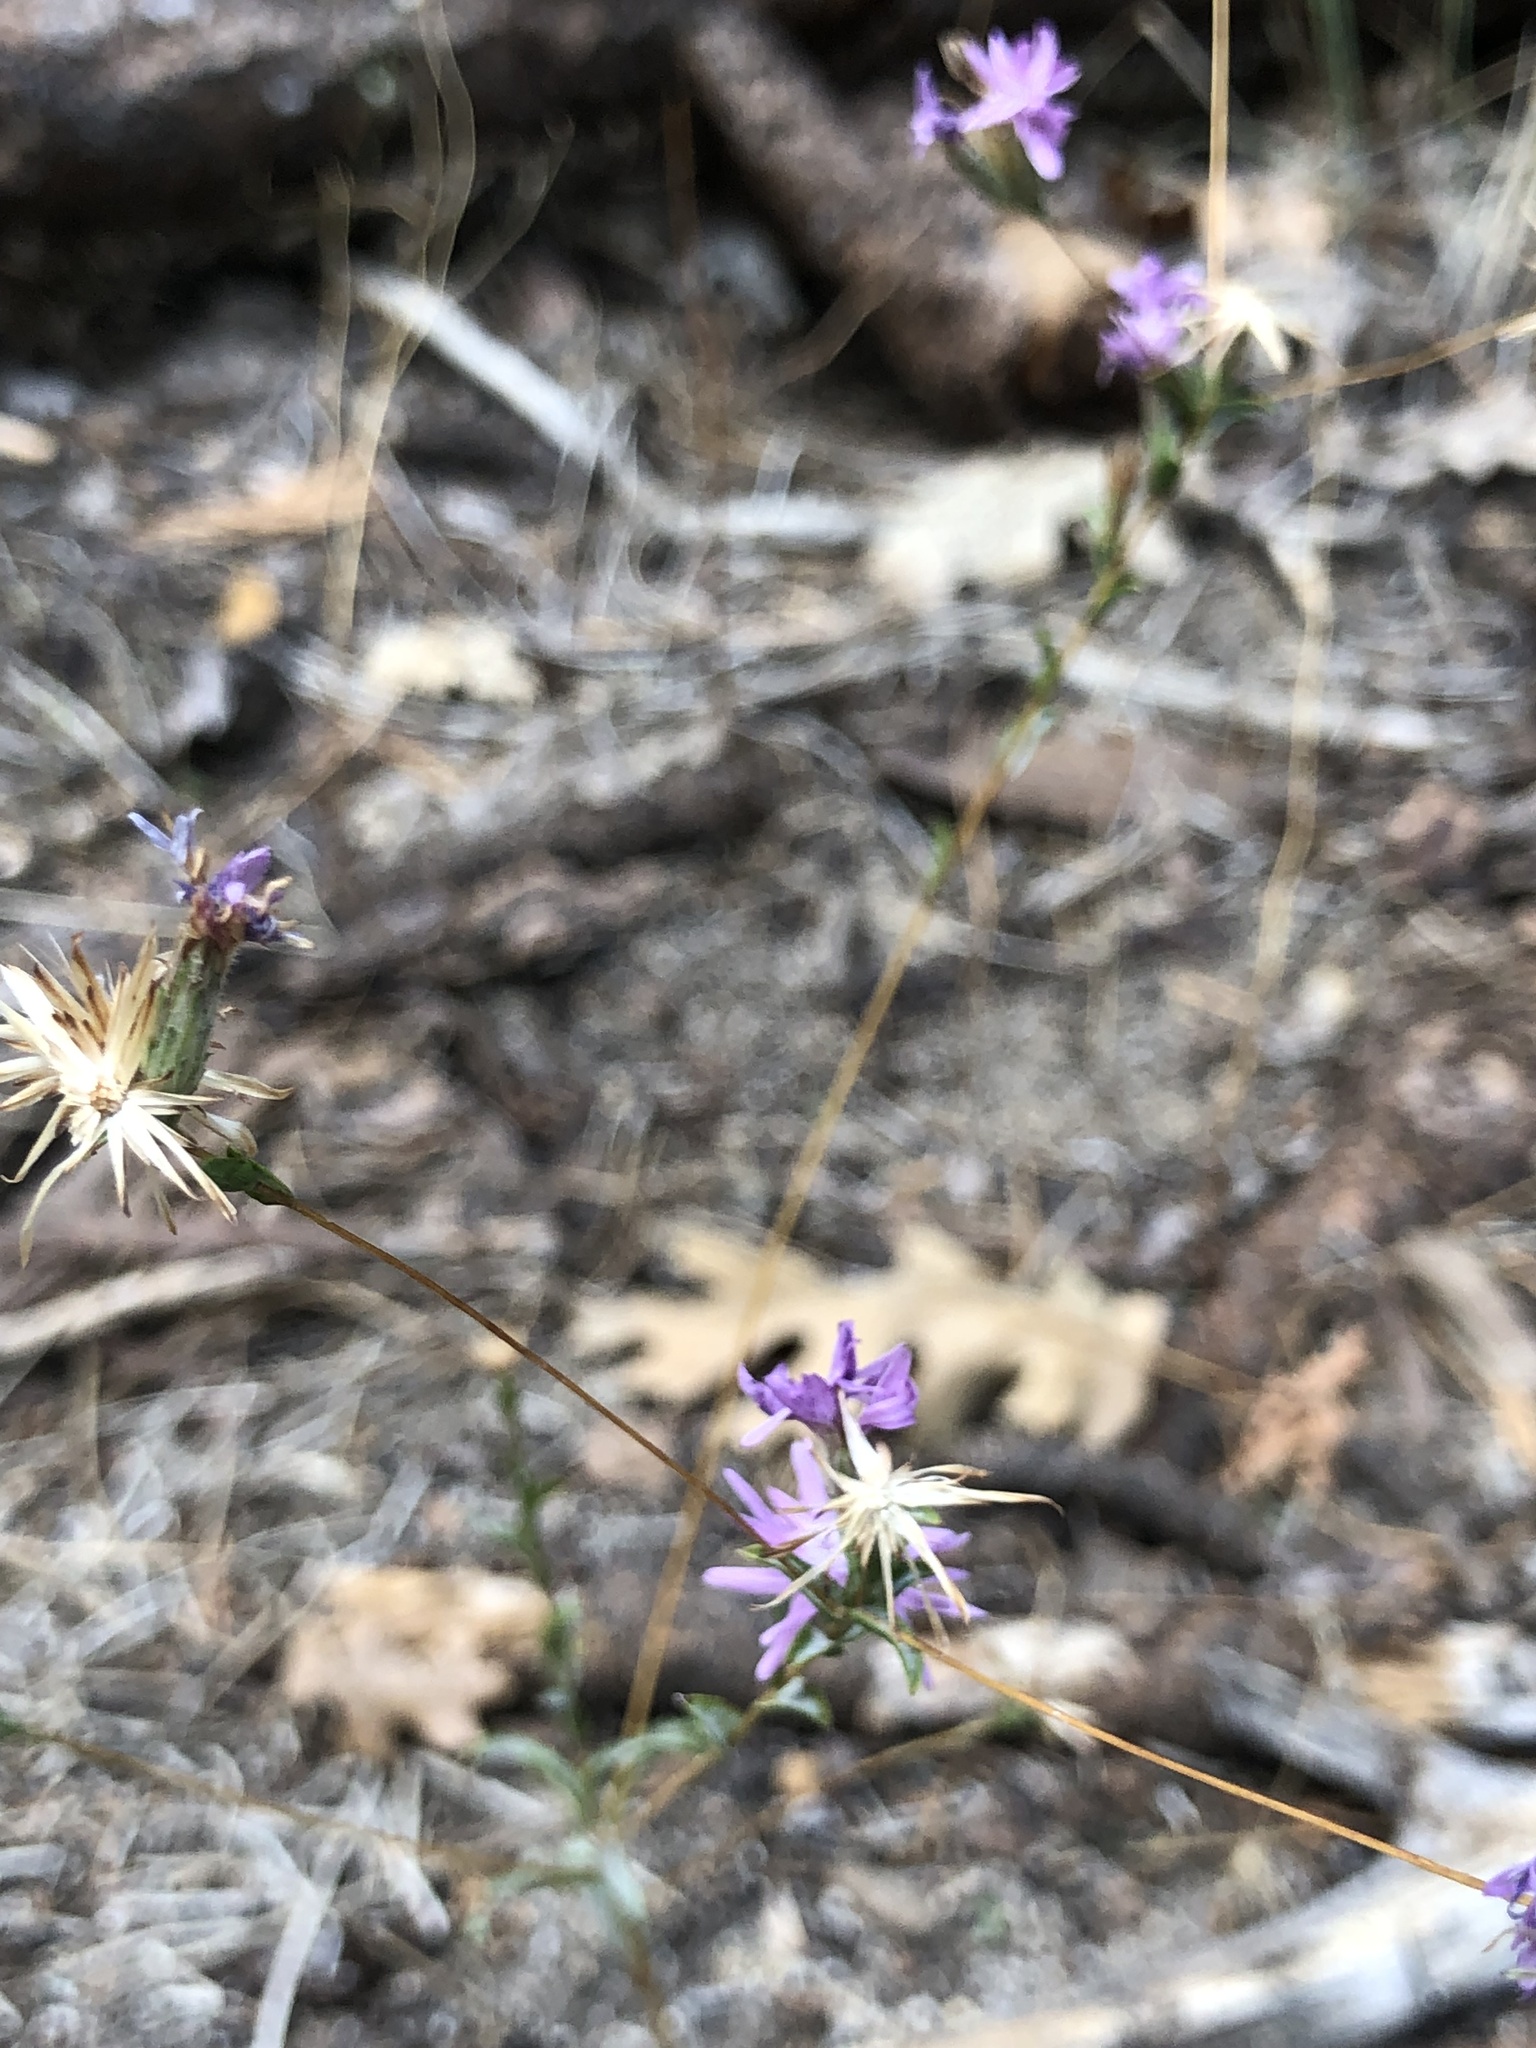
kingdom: Plantae
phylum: Tracheophyta
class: Magnoliopsida
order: Asterales
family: Asteraceae
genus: Lessingia
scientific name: Lessingia leptoclada
